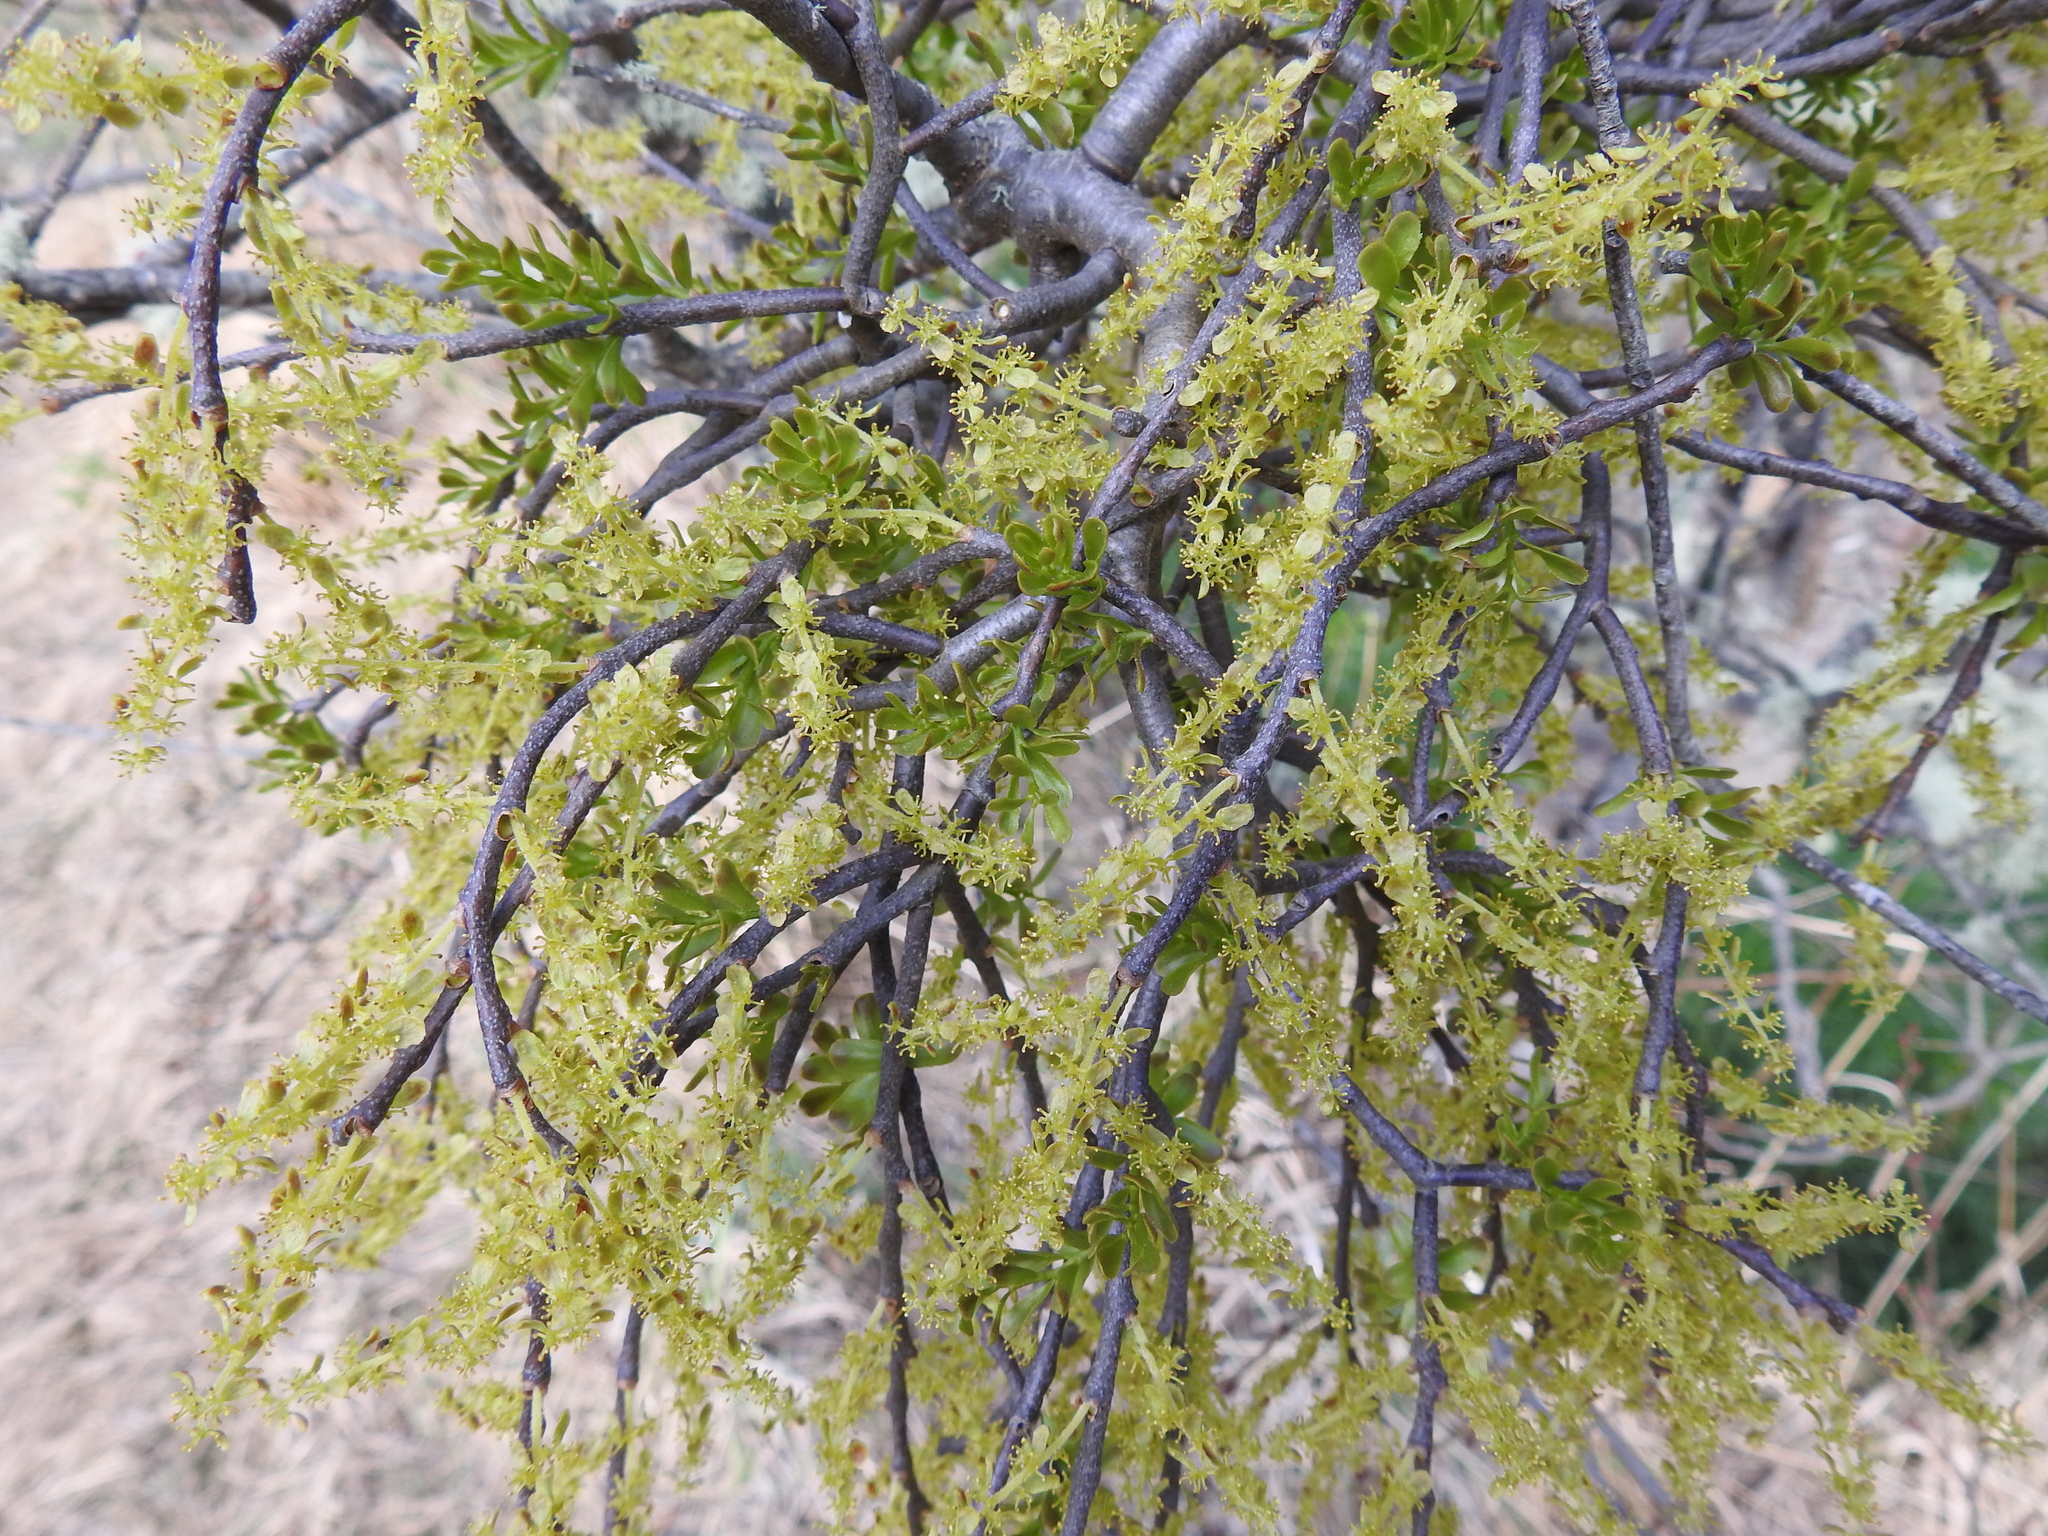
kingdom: Plantae
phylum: Tracheophyta
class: Magnoliopsida
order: Santalales
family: Misodendraceae
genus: Misodendrum
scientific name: Misodendrum quadriflorum
